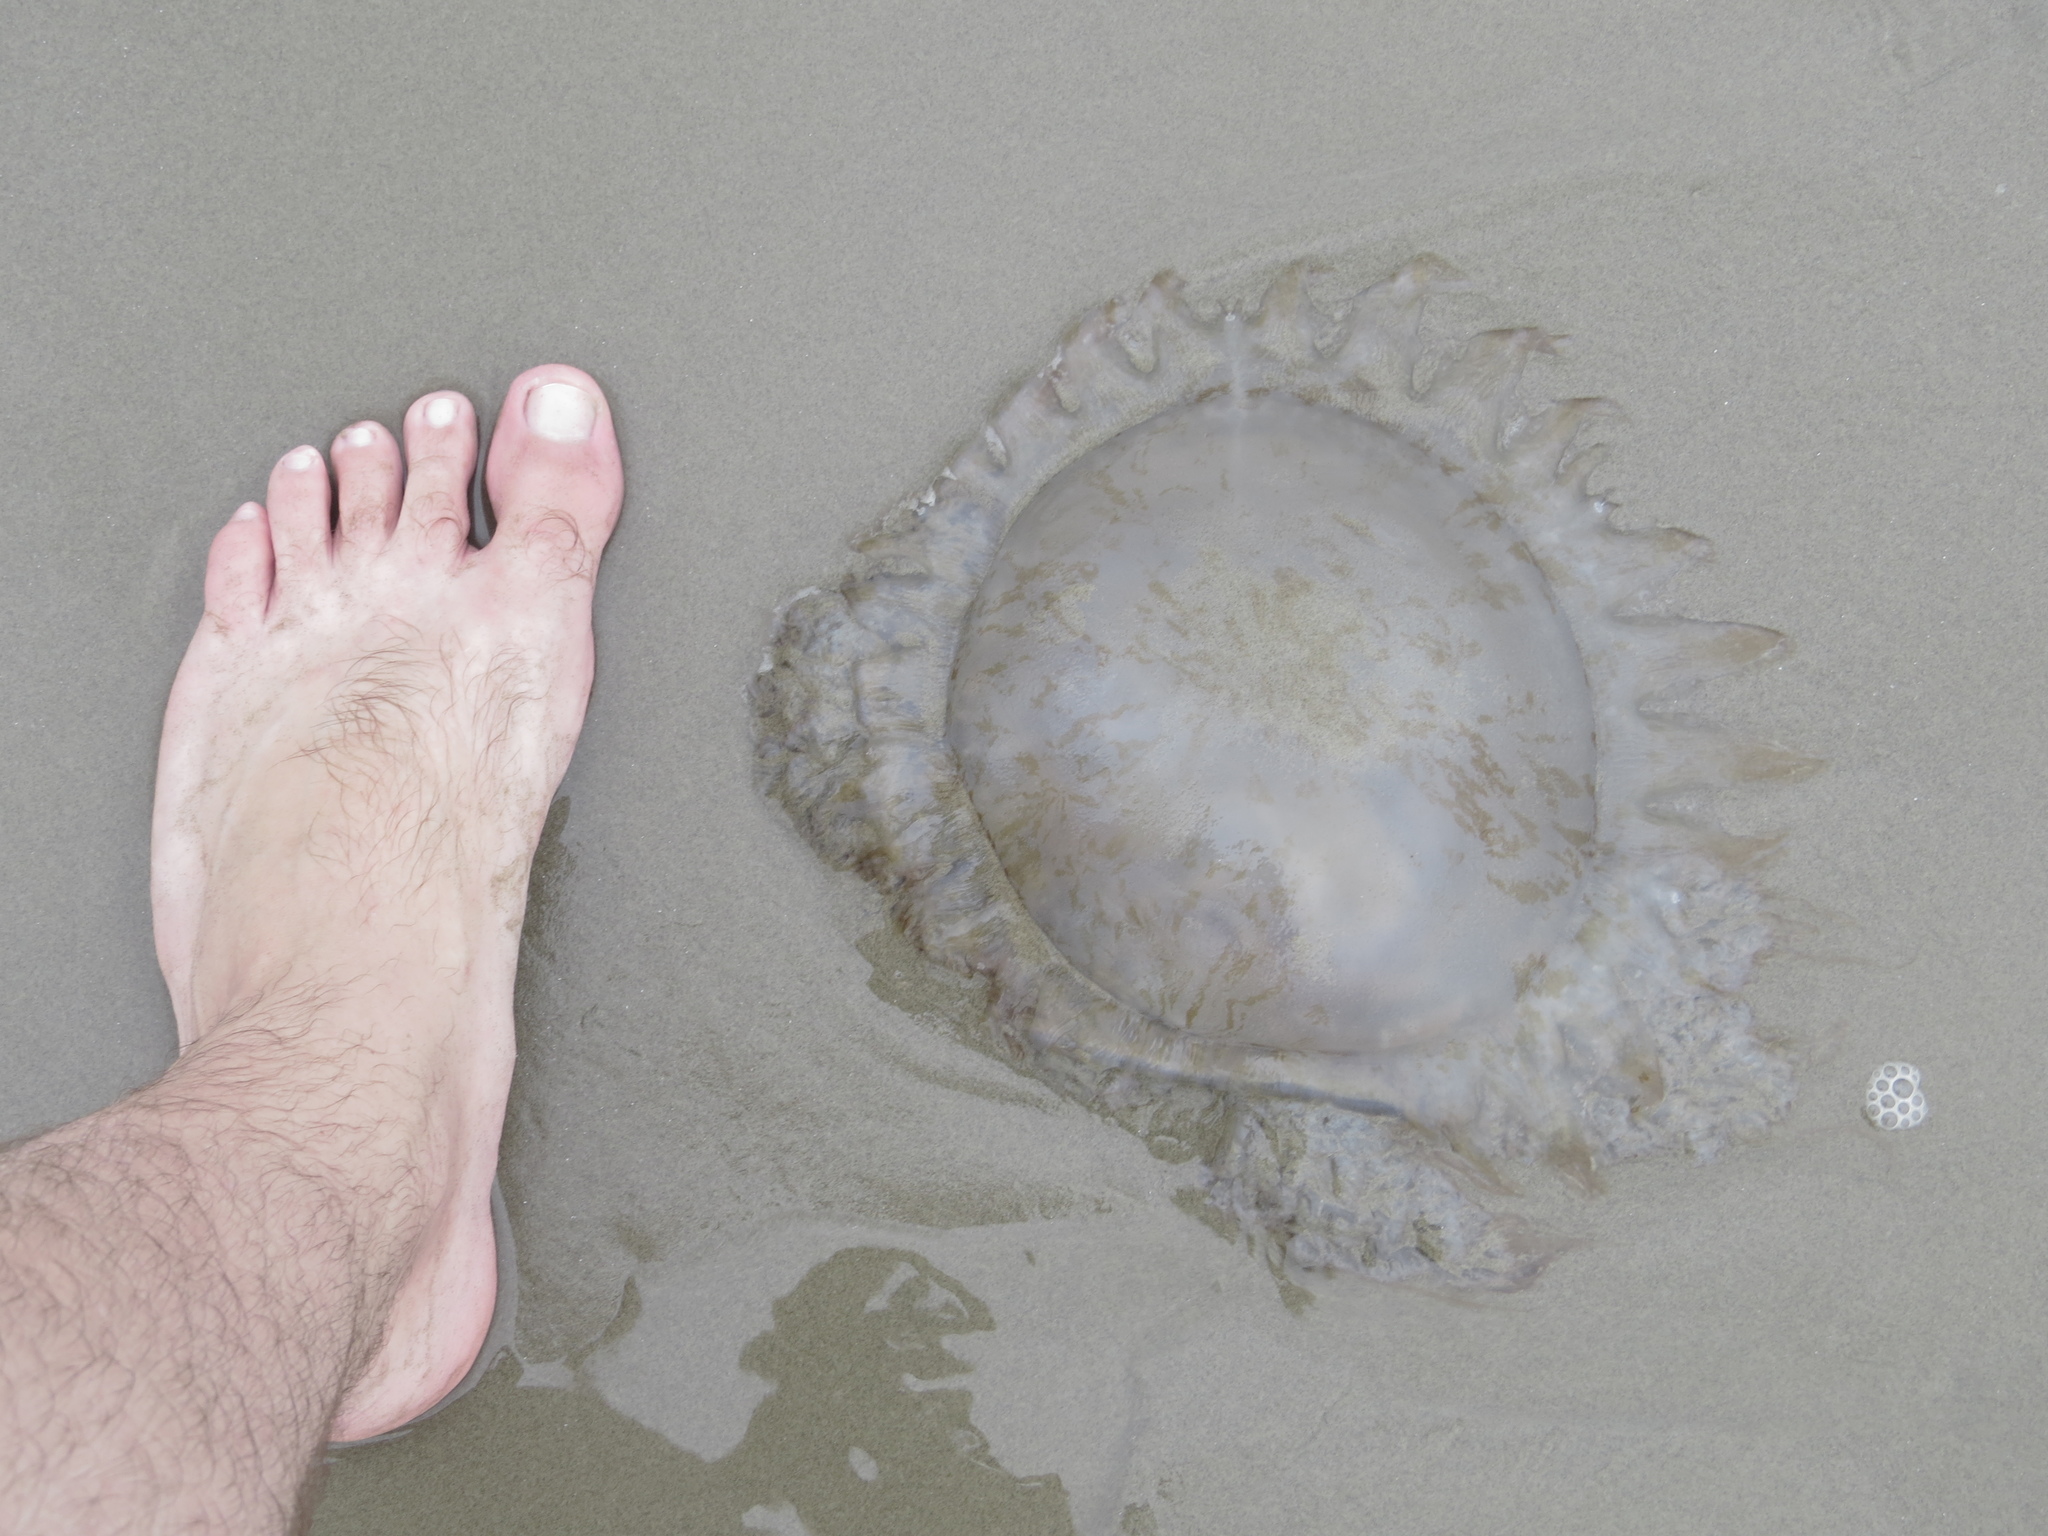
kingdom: Animalia
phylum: Cnidaria
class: Scyphozoa
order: Rhizostomeae
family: Lychnorhizidae
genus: Lychnorhiza
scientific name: Lychnorhiza lucerna
